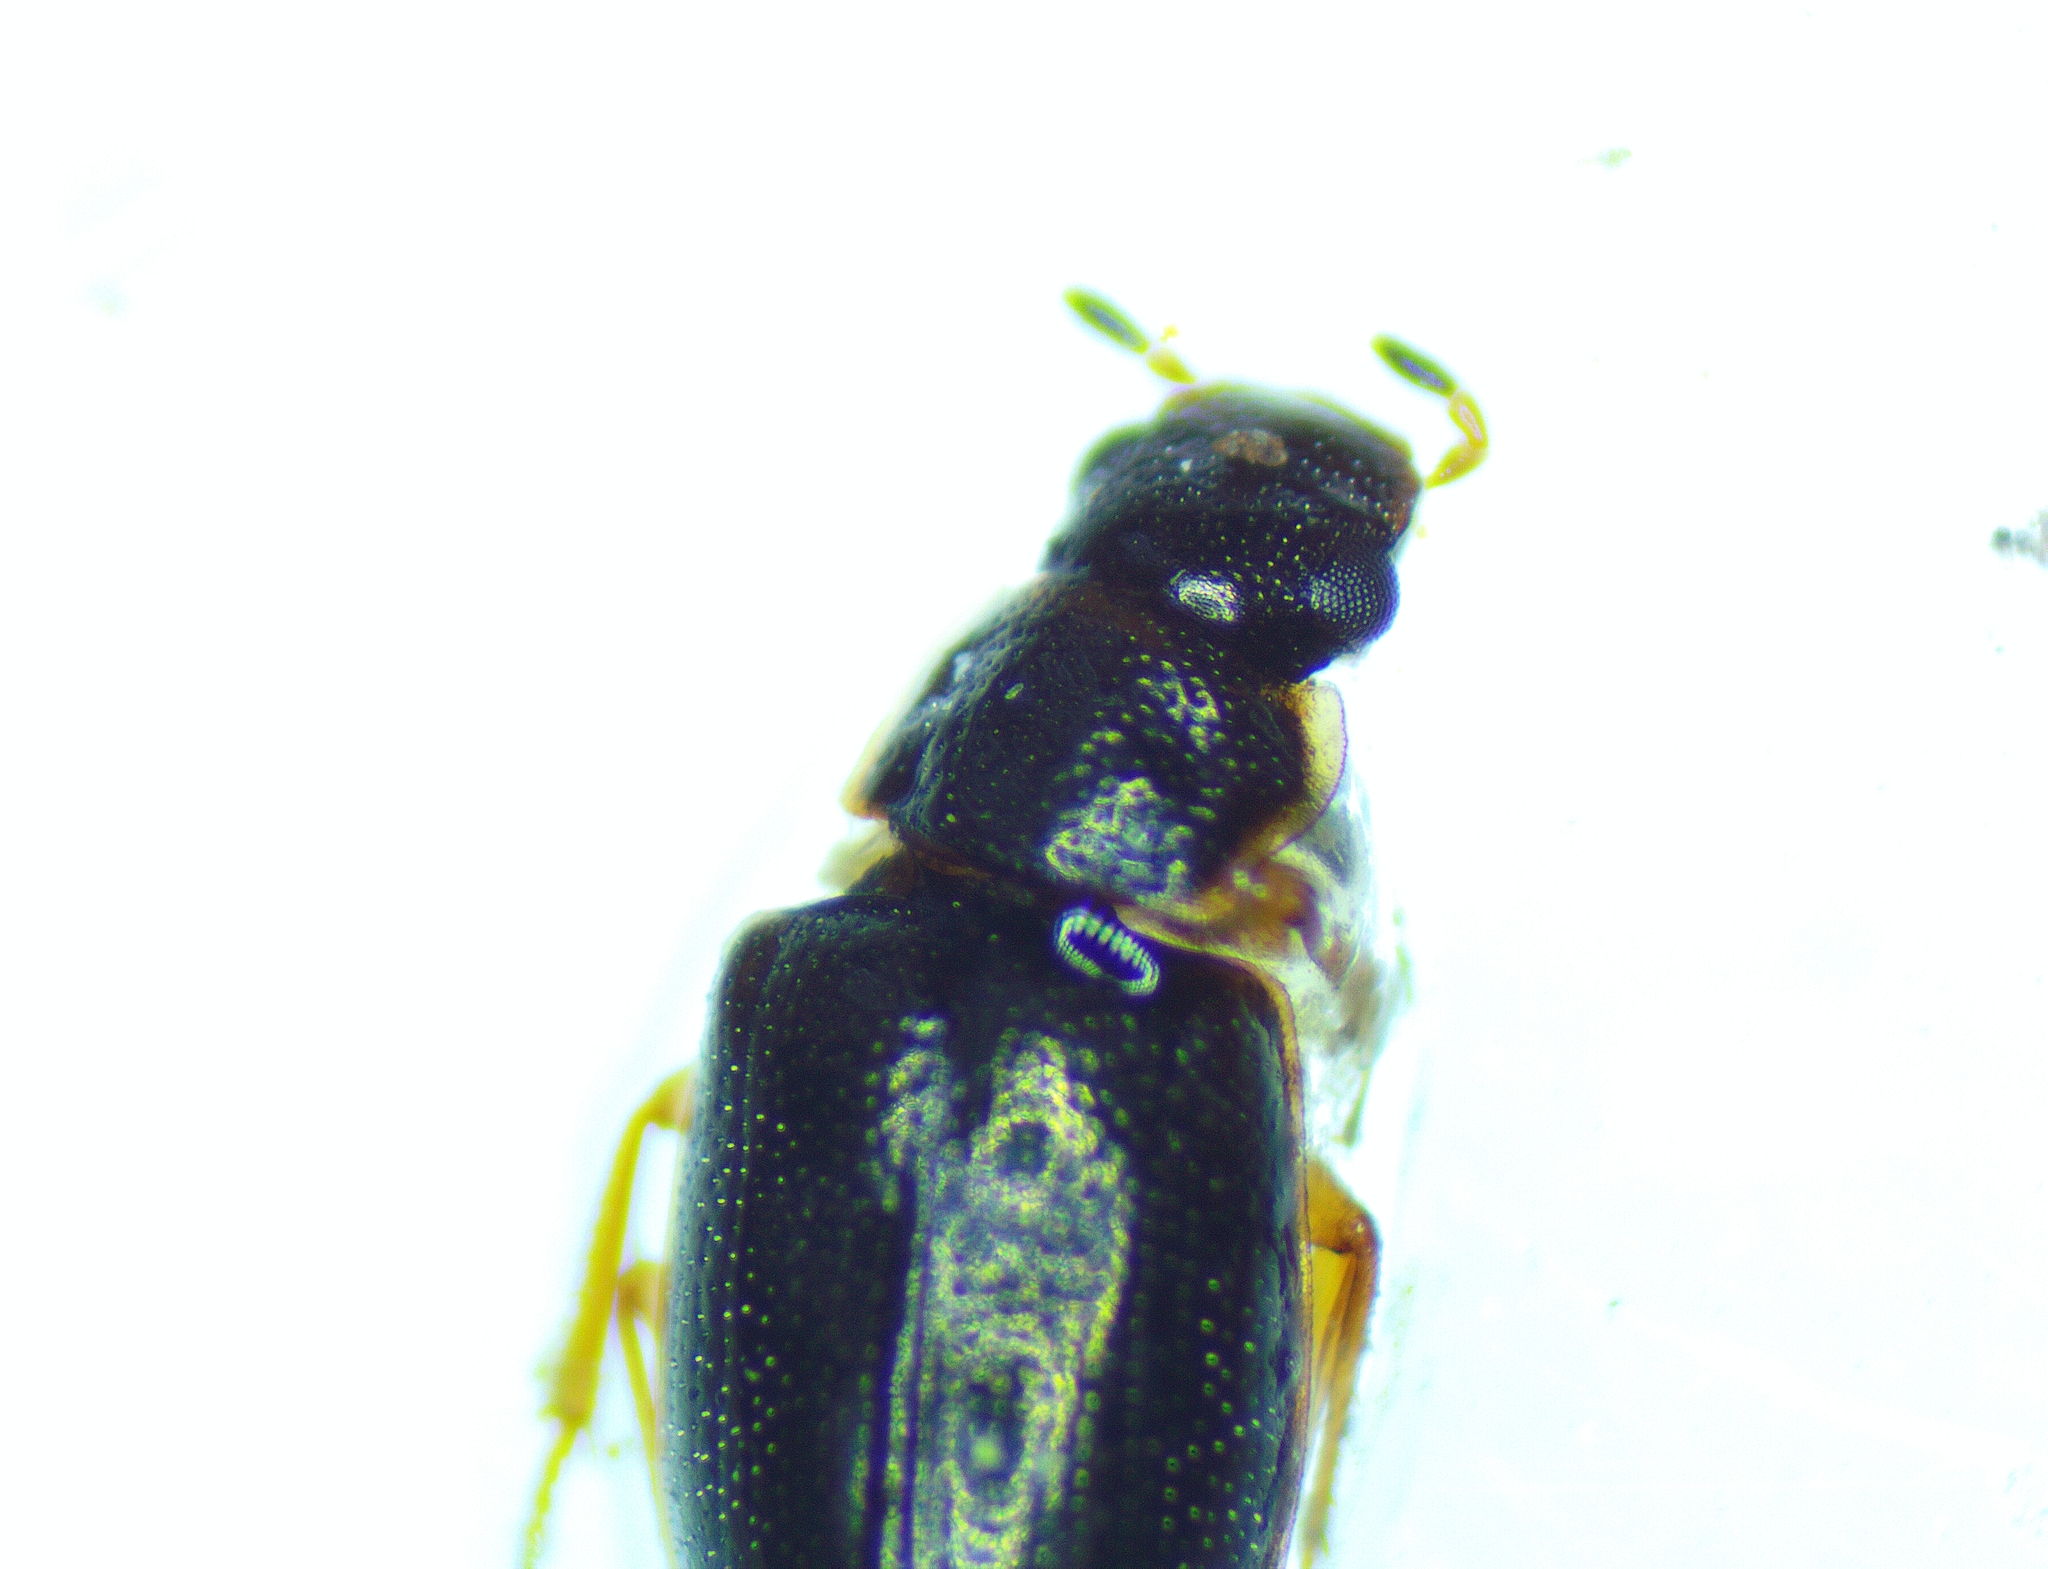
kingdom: Animalia
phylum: Arthropoda
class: Insecta
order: Coleoptera
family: Hydrophilidae
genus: Horelophus
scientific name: Horelophus walkeri
